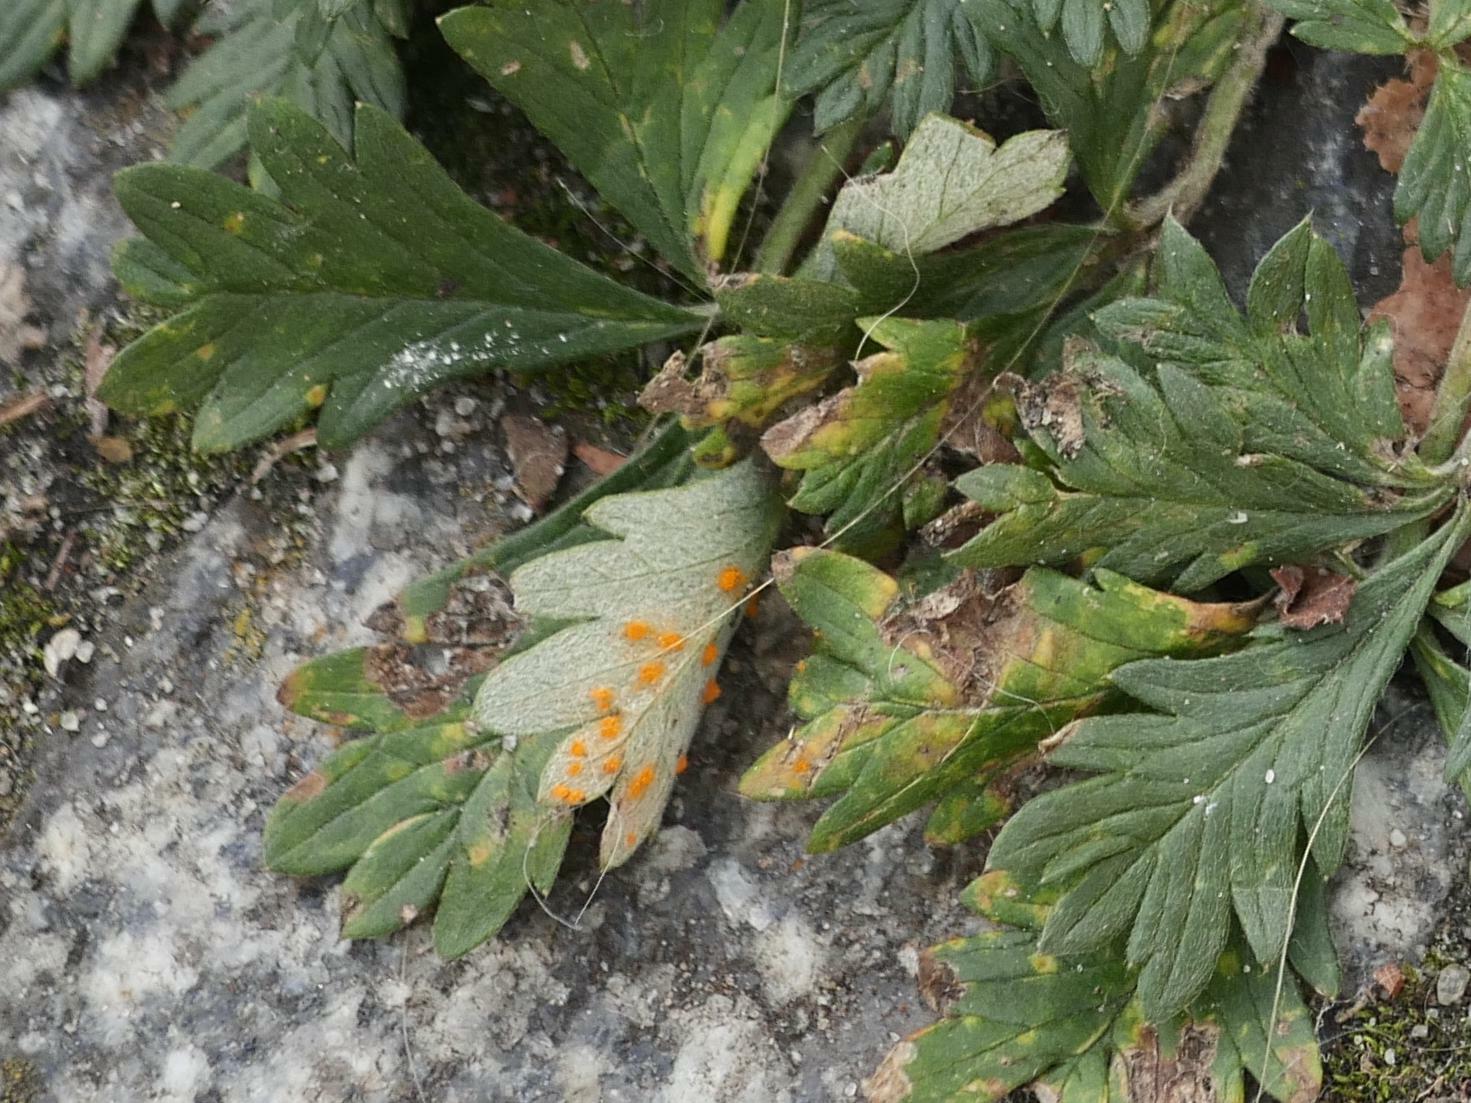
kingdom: Fungi
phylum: Basidiomycota
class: Pucciniomycetes
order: Pucciniales
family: Phragmidiaceae
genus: Phragmidium
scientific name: Phragmidium potentillae
